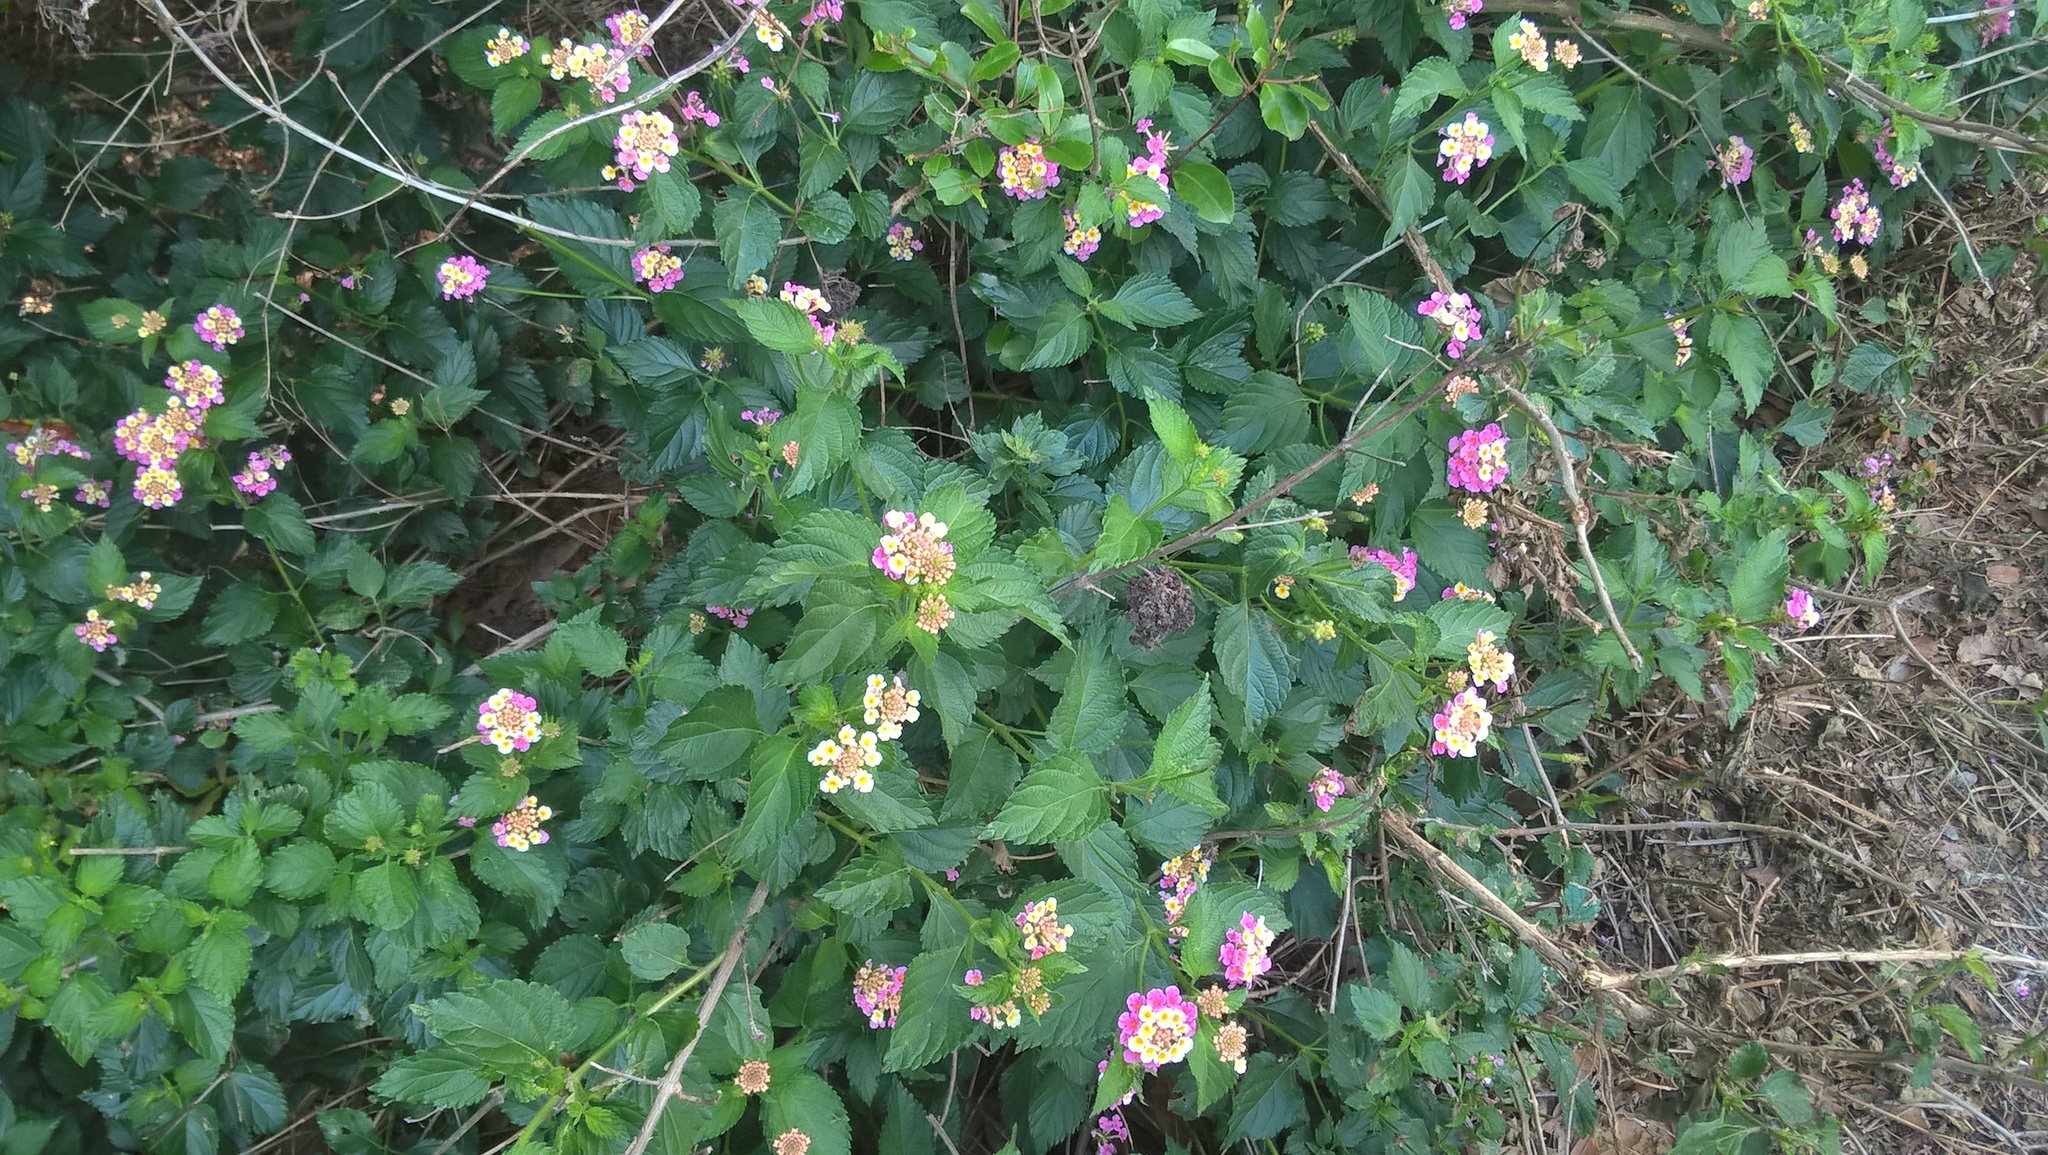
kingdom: Plantae
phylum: Tracheophyta
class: Magnoliopsida
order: Lamiales
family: Verbenaceae
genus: Lantana
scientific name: Lantana strigocamara
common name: Lantana
